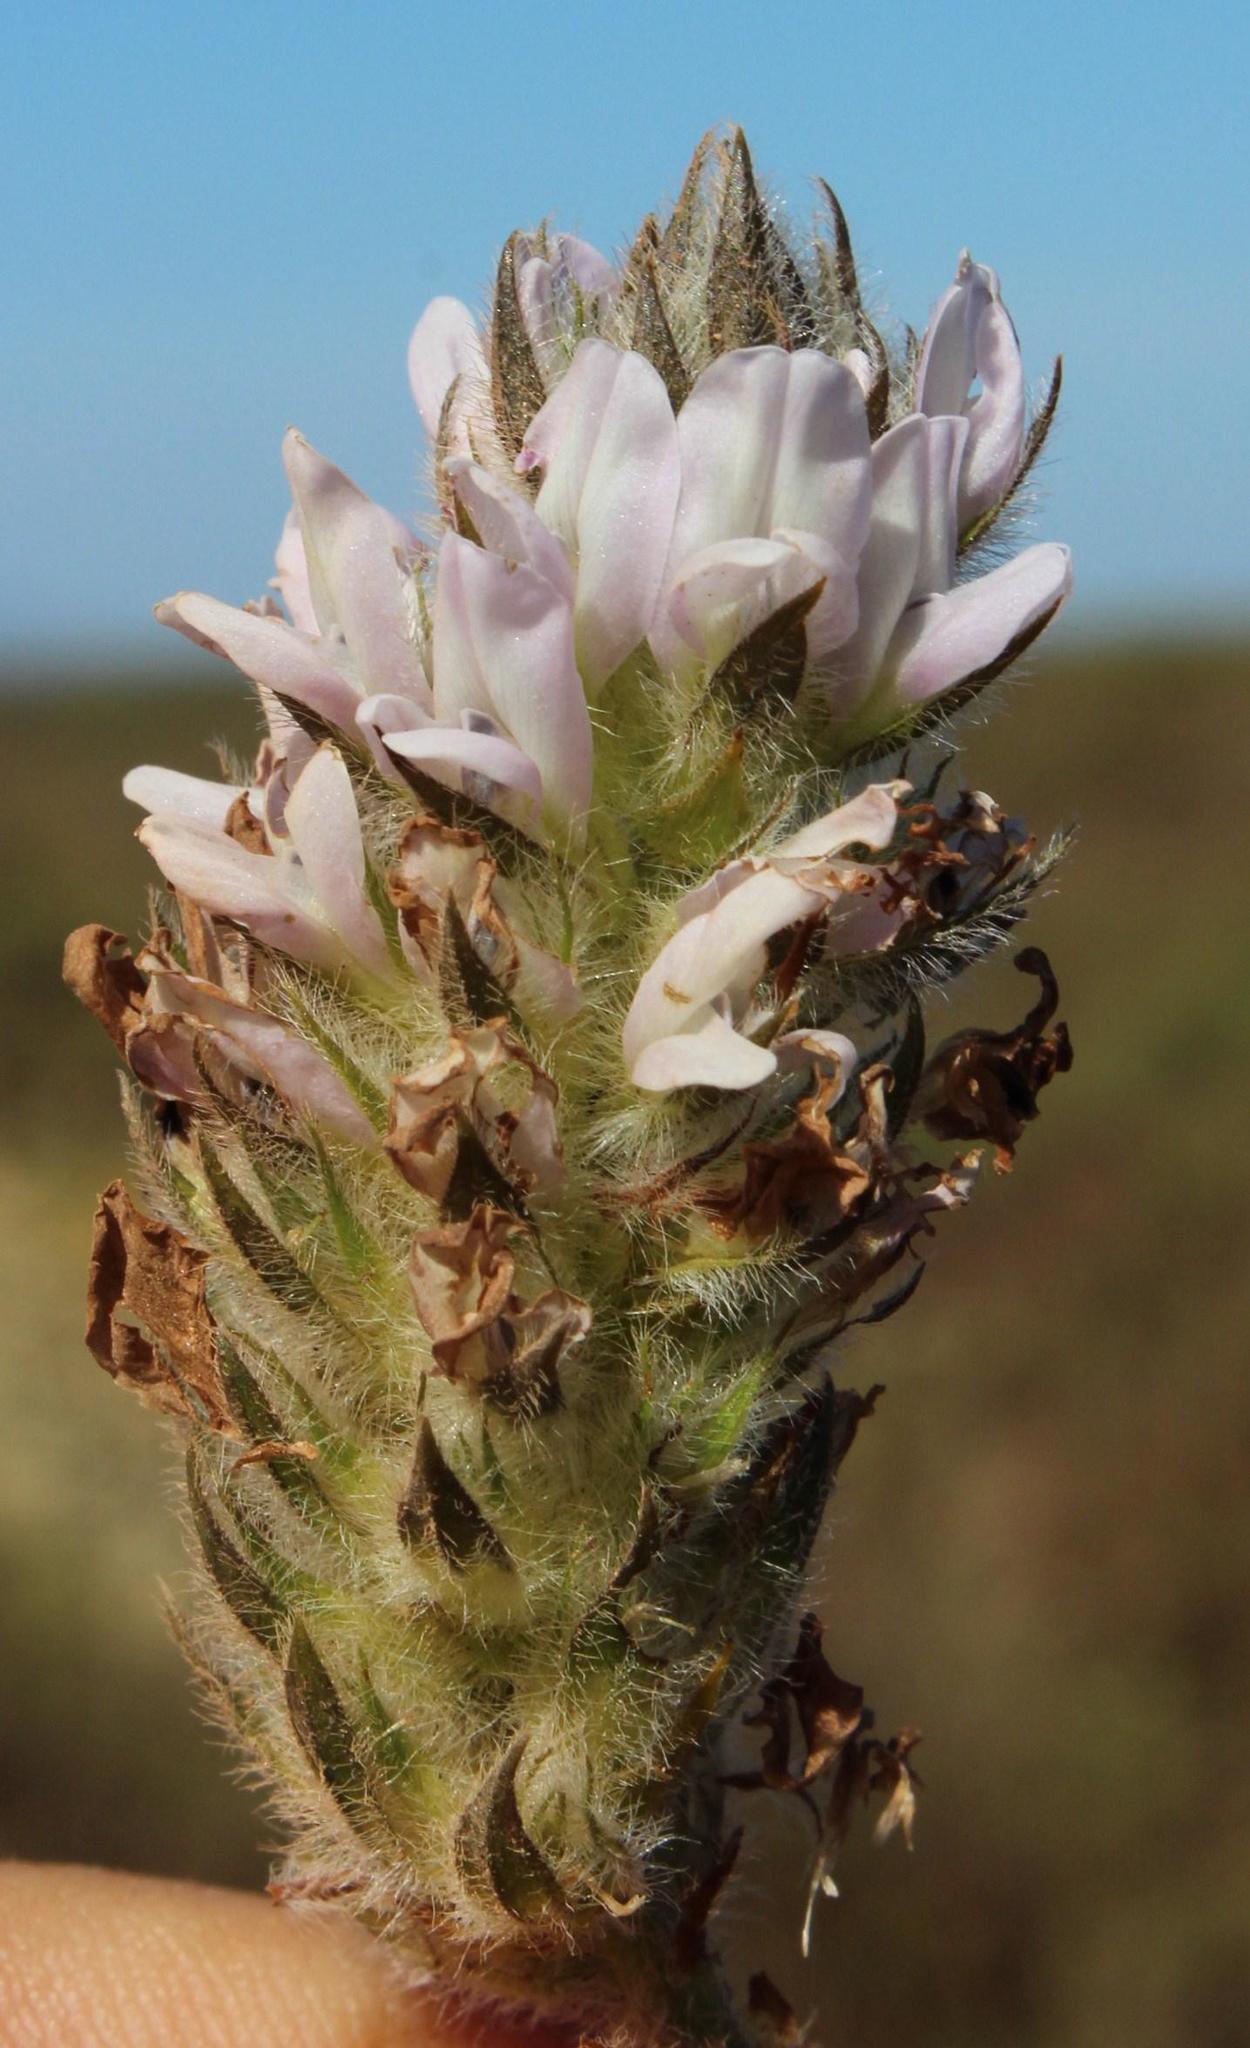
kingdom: Plantae
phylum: Tracheophyta
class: Magnoliopsida
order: Fabales
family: Fabaceae
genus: Psoralea
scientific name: Psoralea zeyheri
